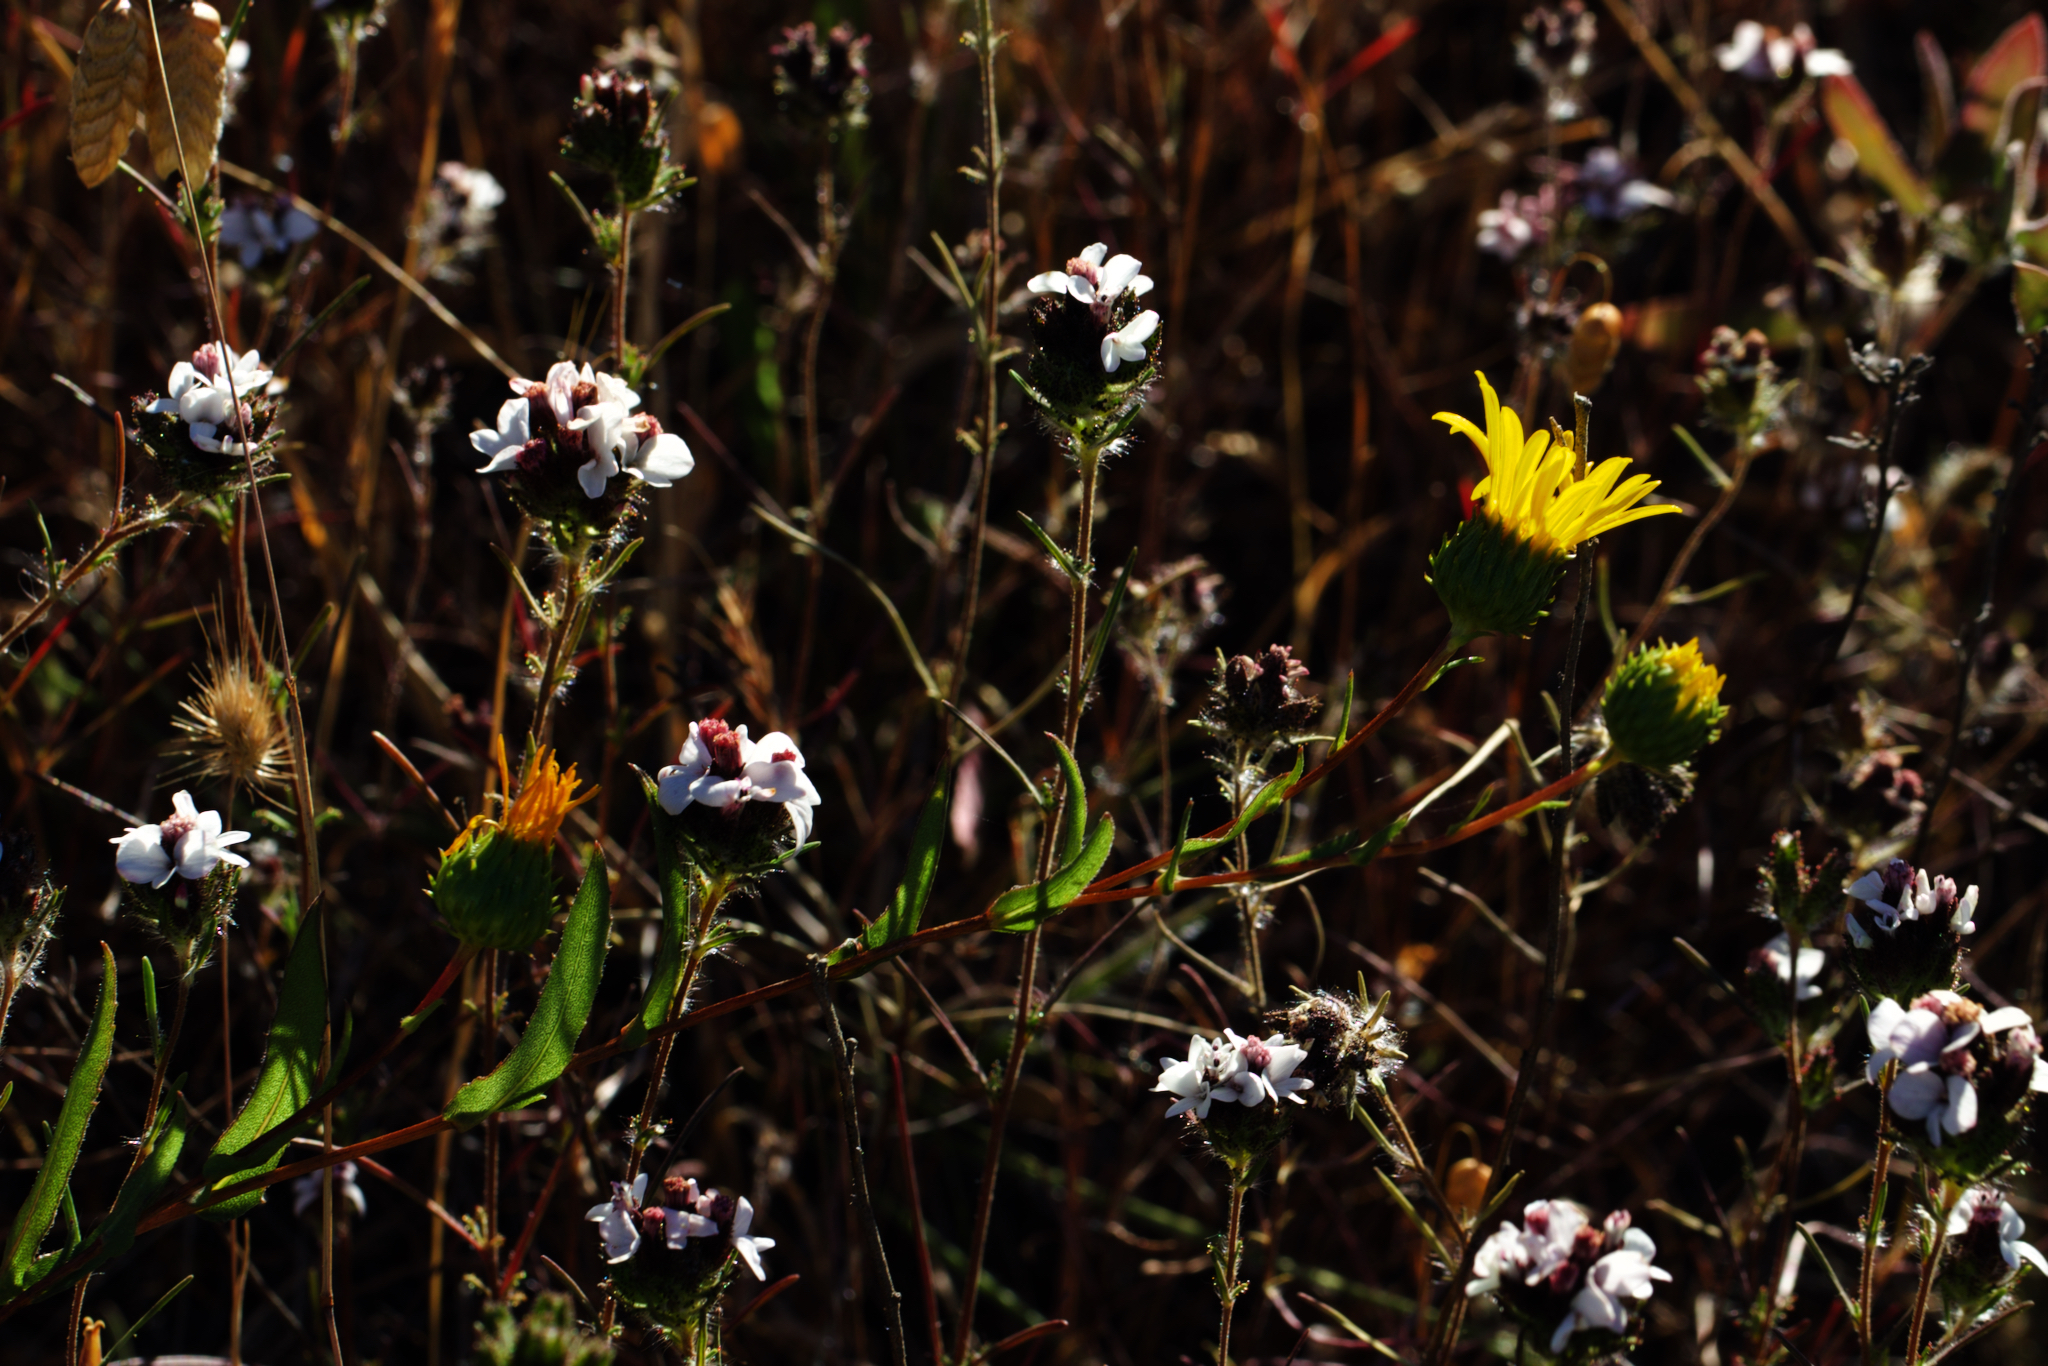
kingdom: Plantae
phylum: Tracheophyta
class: Magnoliopsida
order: Asterales
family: Asteraceae
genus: Calycadenia
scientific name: Calycadenia multiglandulosa
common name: Sticky calycadenia
